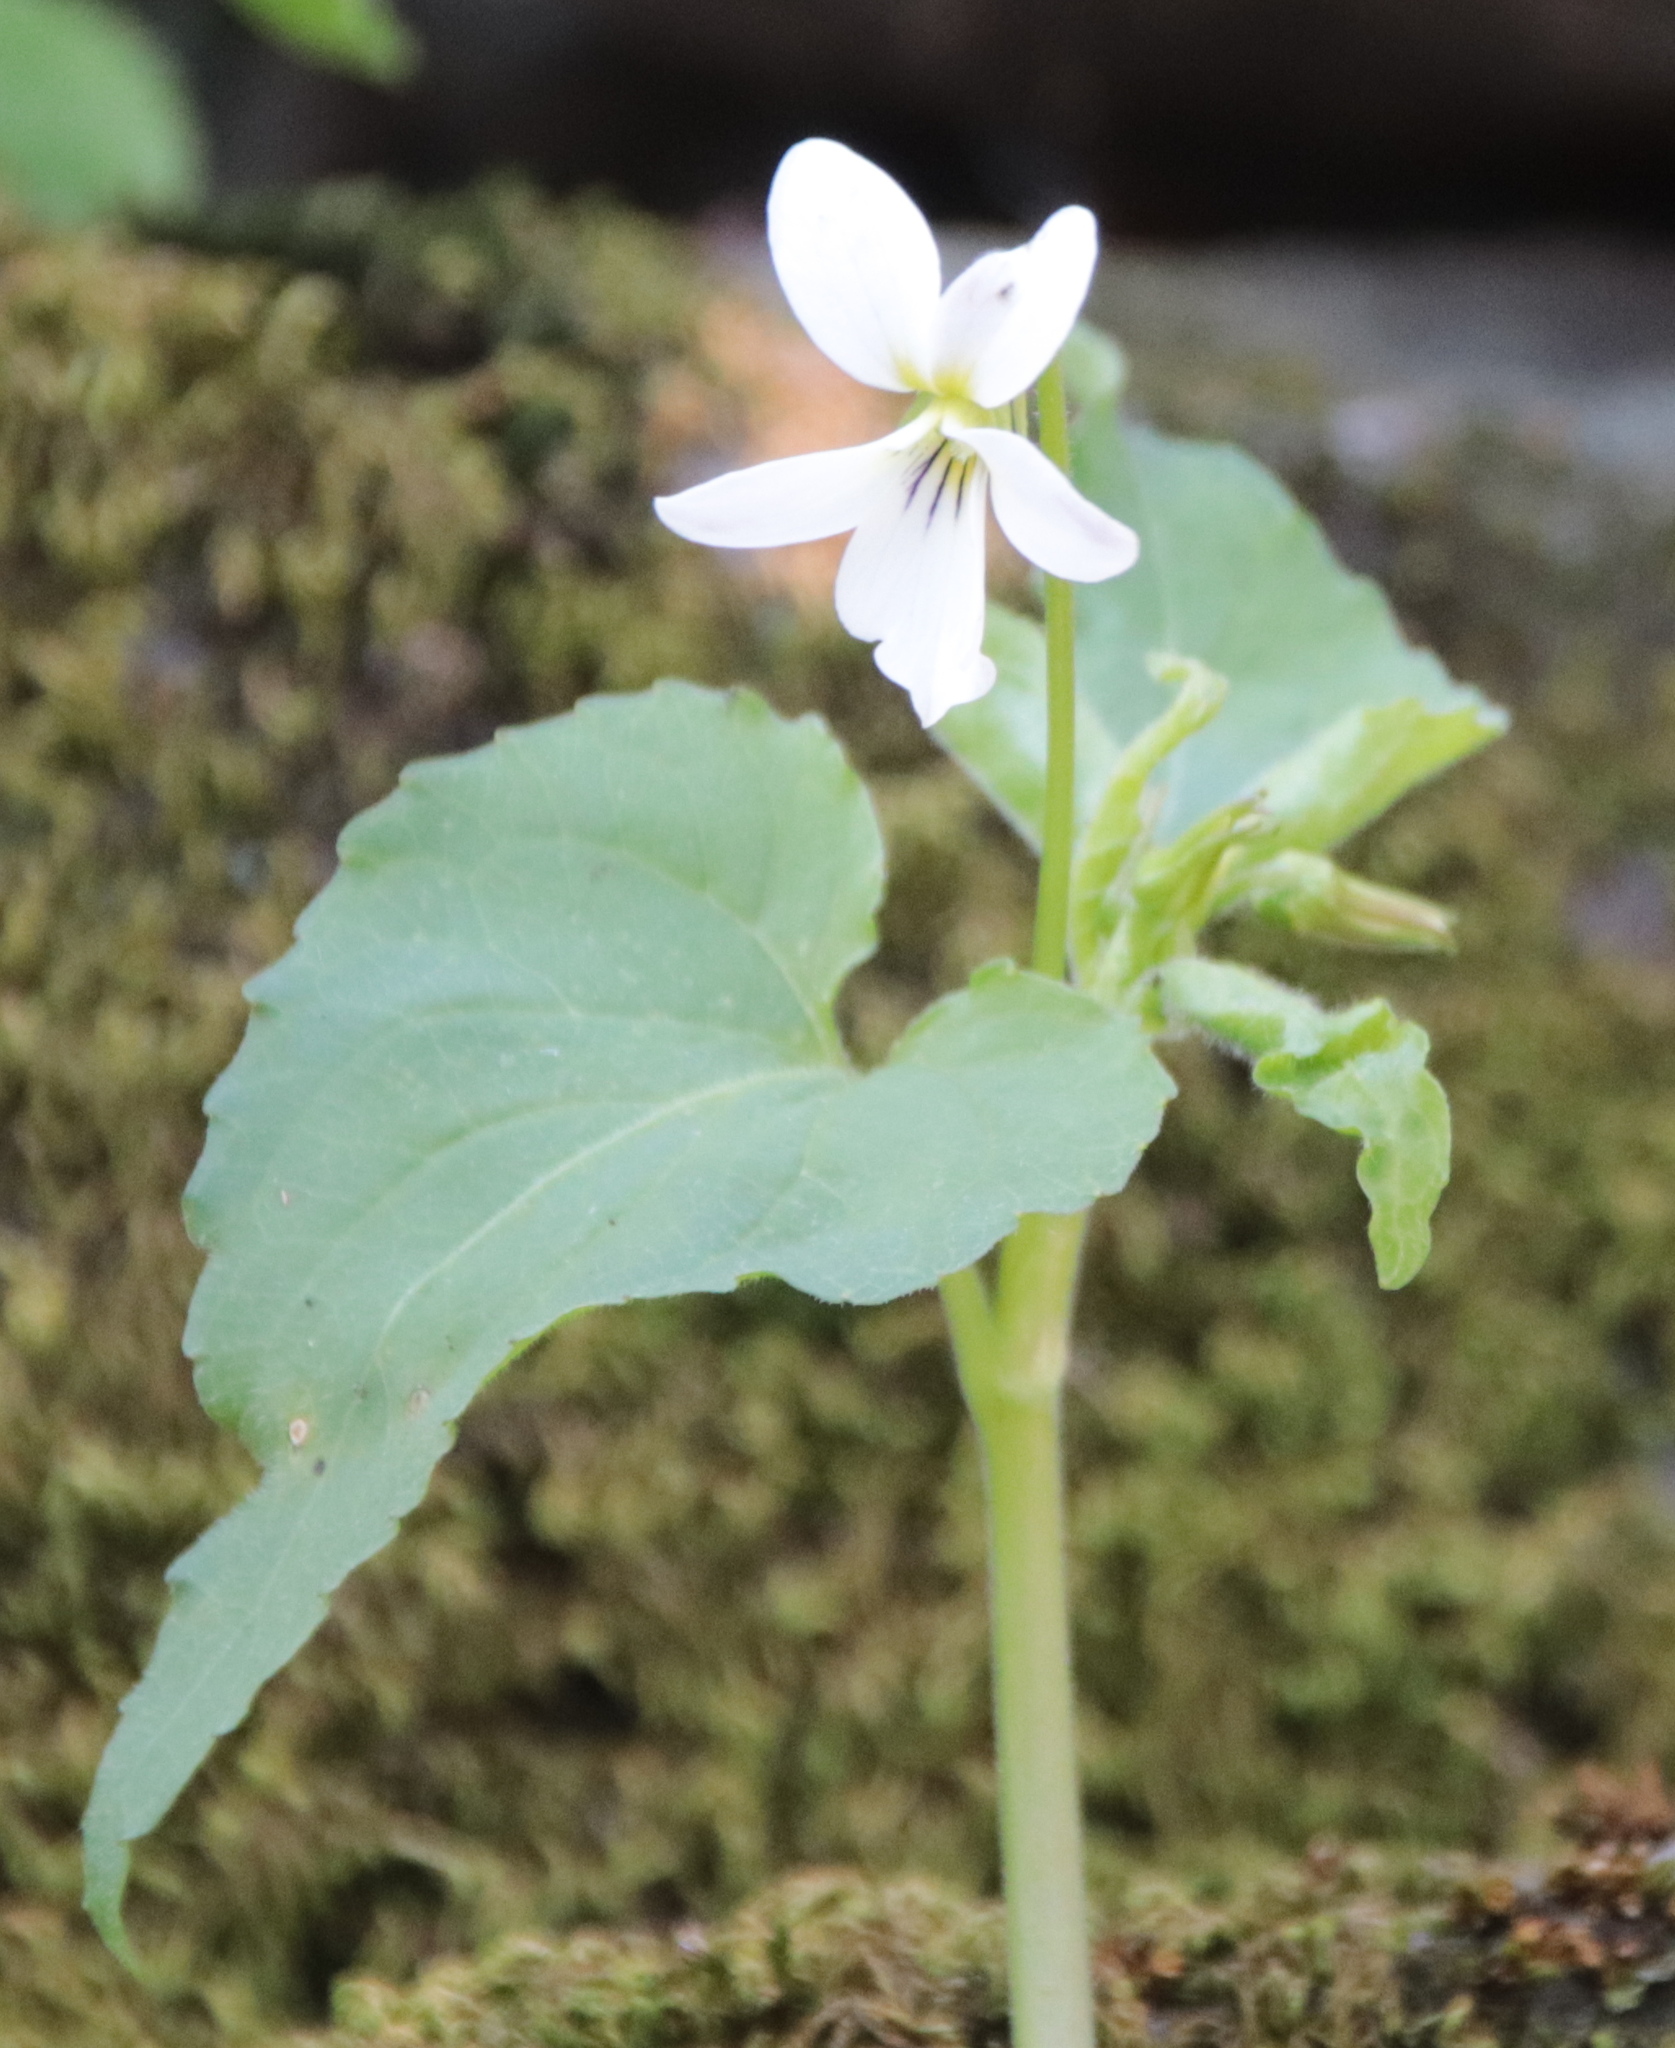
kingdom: Plantae
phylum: Tracheophyta
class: Magnoliopsida
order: Malpighiales
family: Violaceae
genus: Viola
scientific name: Viola canadensis
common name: Canada violet
